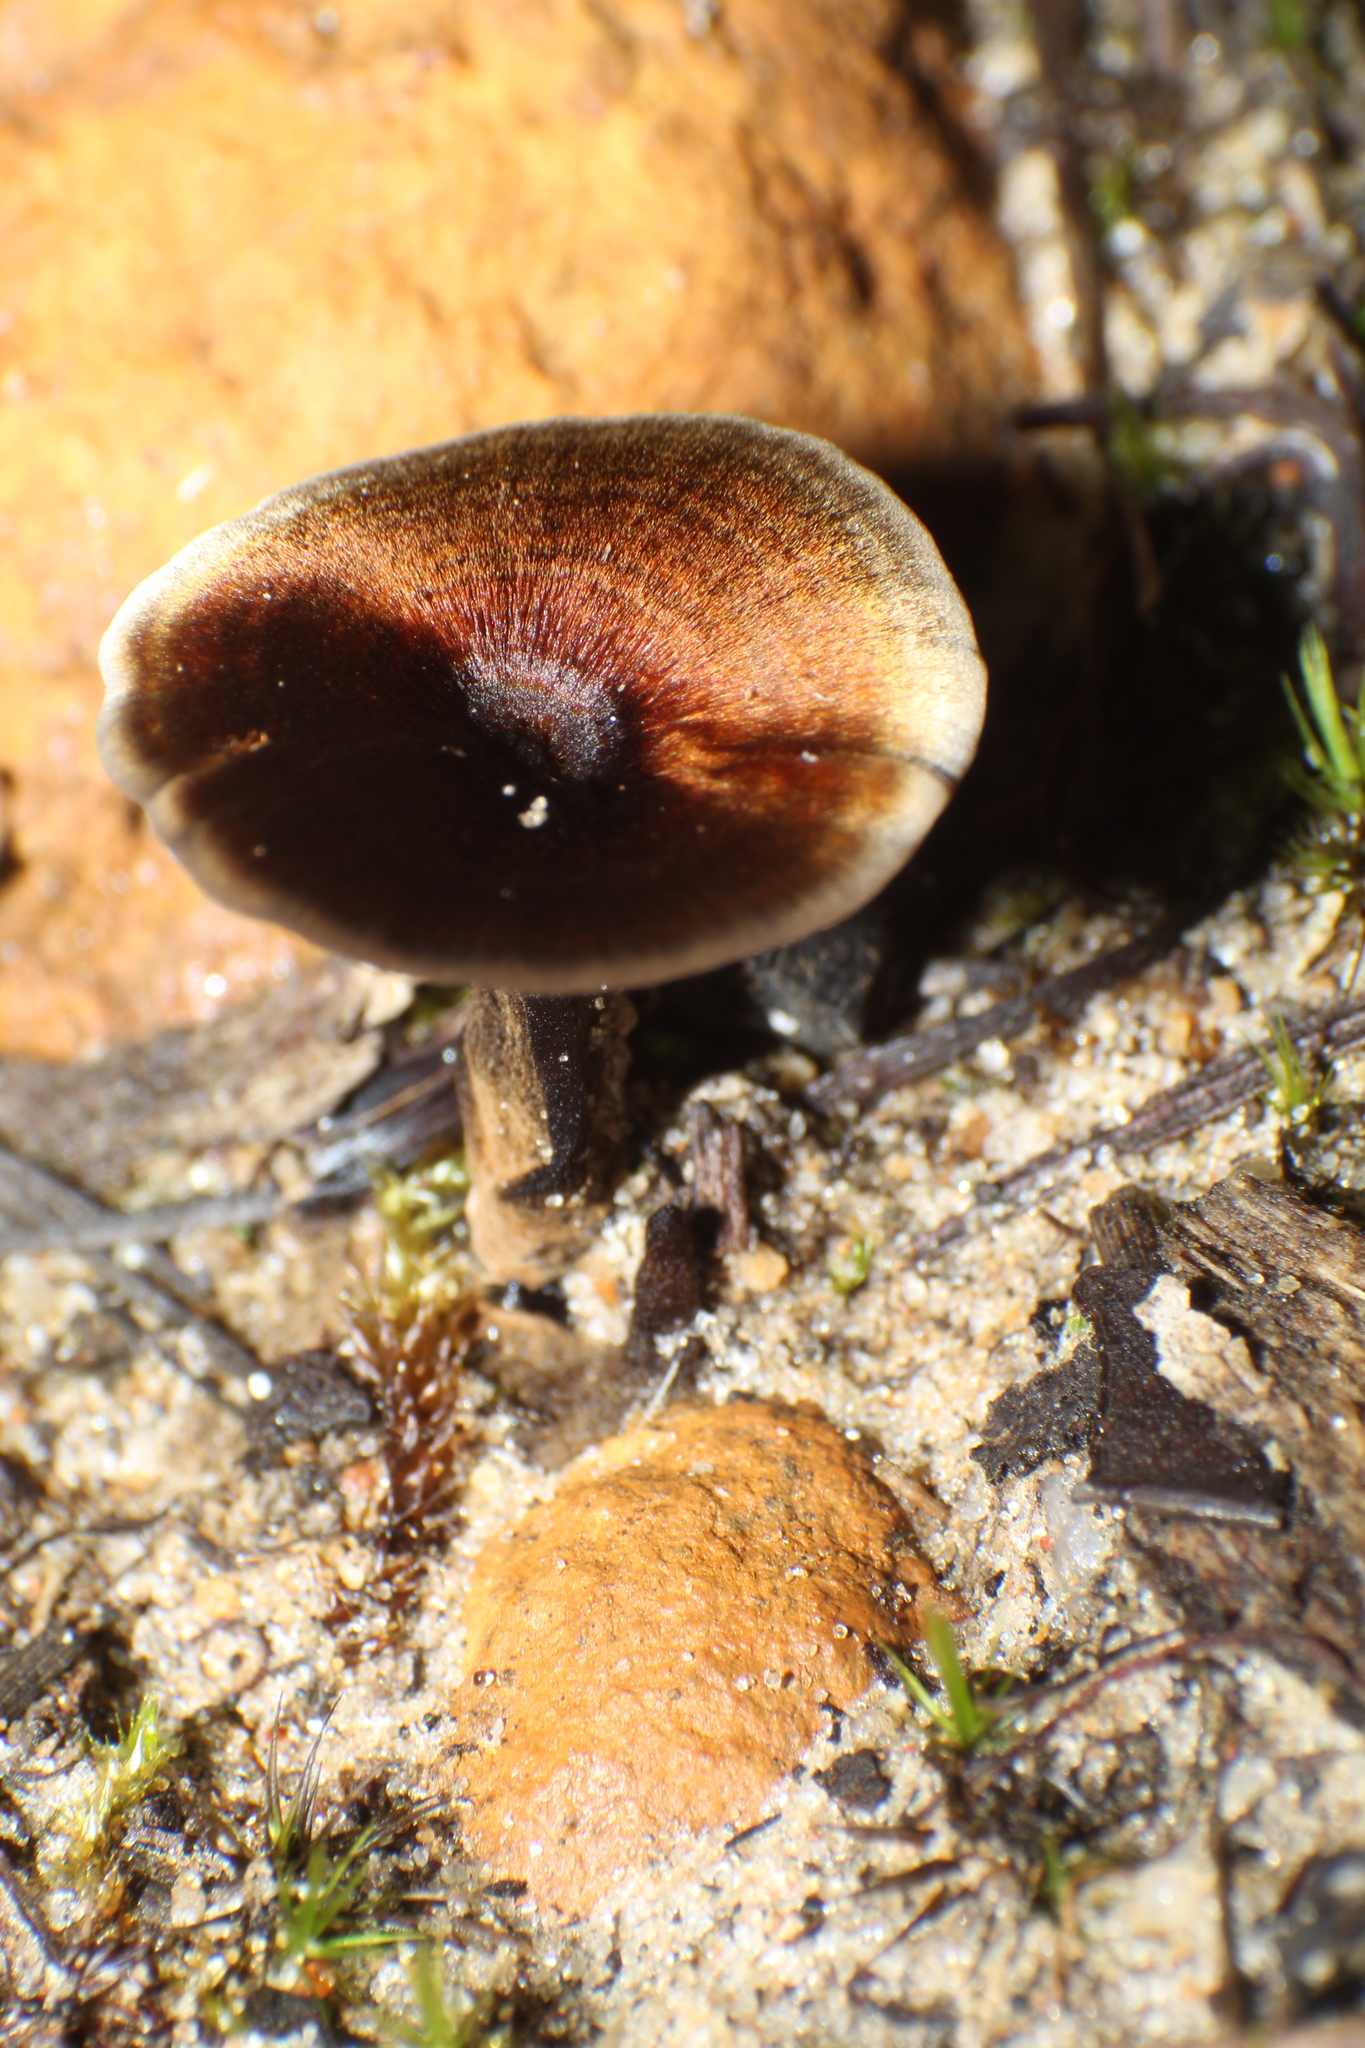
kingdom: Fungi
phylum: Basidiomycota
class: Agaricomycetes
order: Hymenochaetales
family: Hymenochaetaceae
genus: Coltricia
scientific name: Coltricia australica
